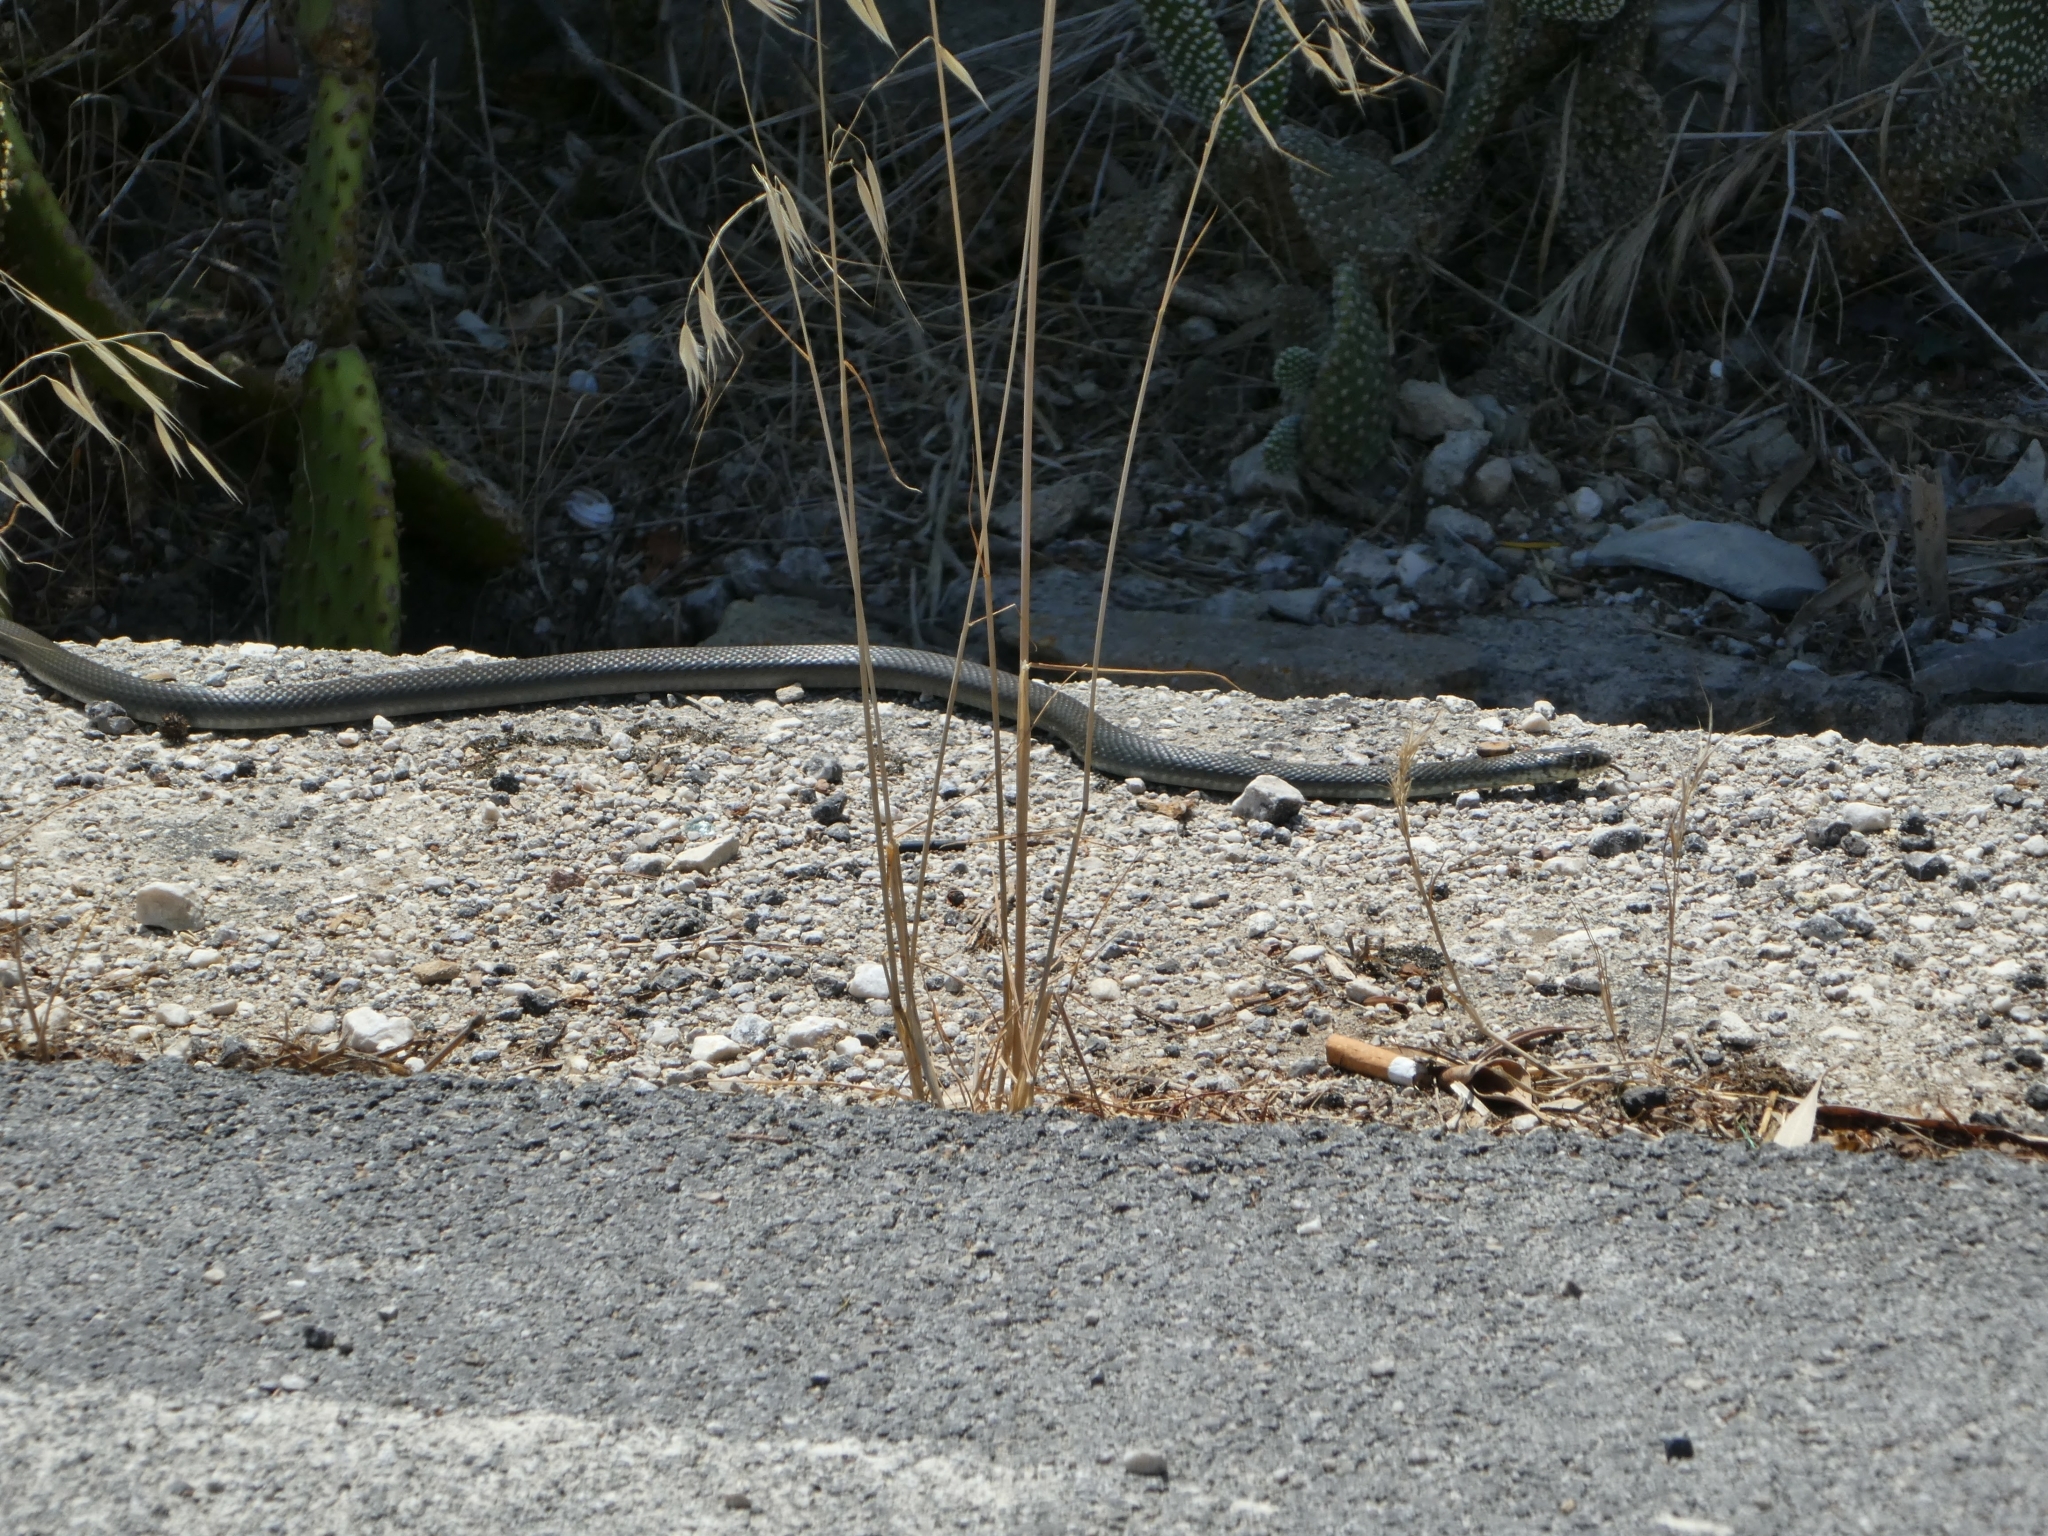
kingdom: Animalia
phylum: Chordata
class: Squamata
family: Colubridae
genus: Hierophis
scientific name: Hierophis viridiflavus
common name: Green whip snake
